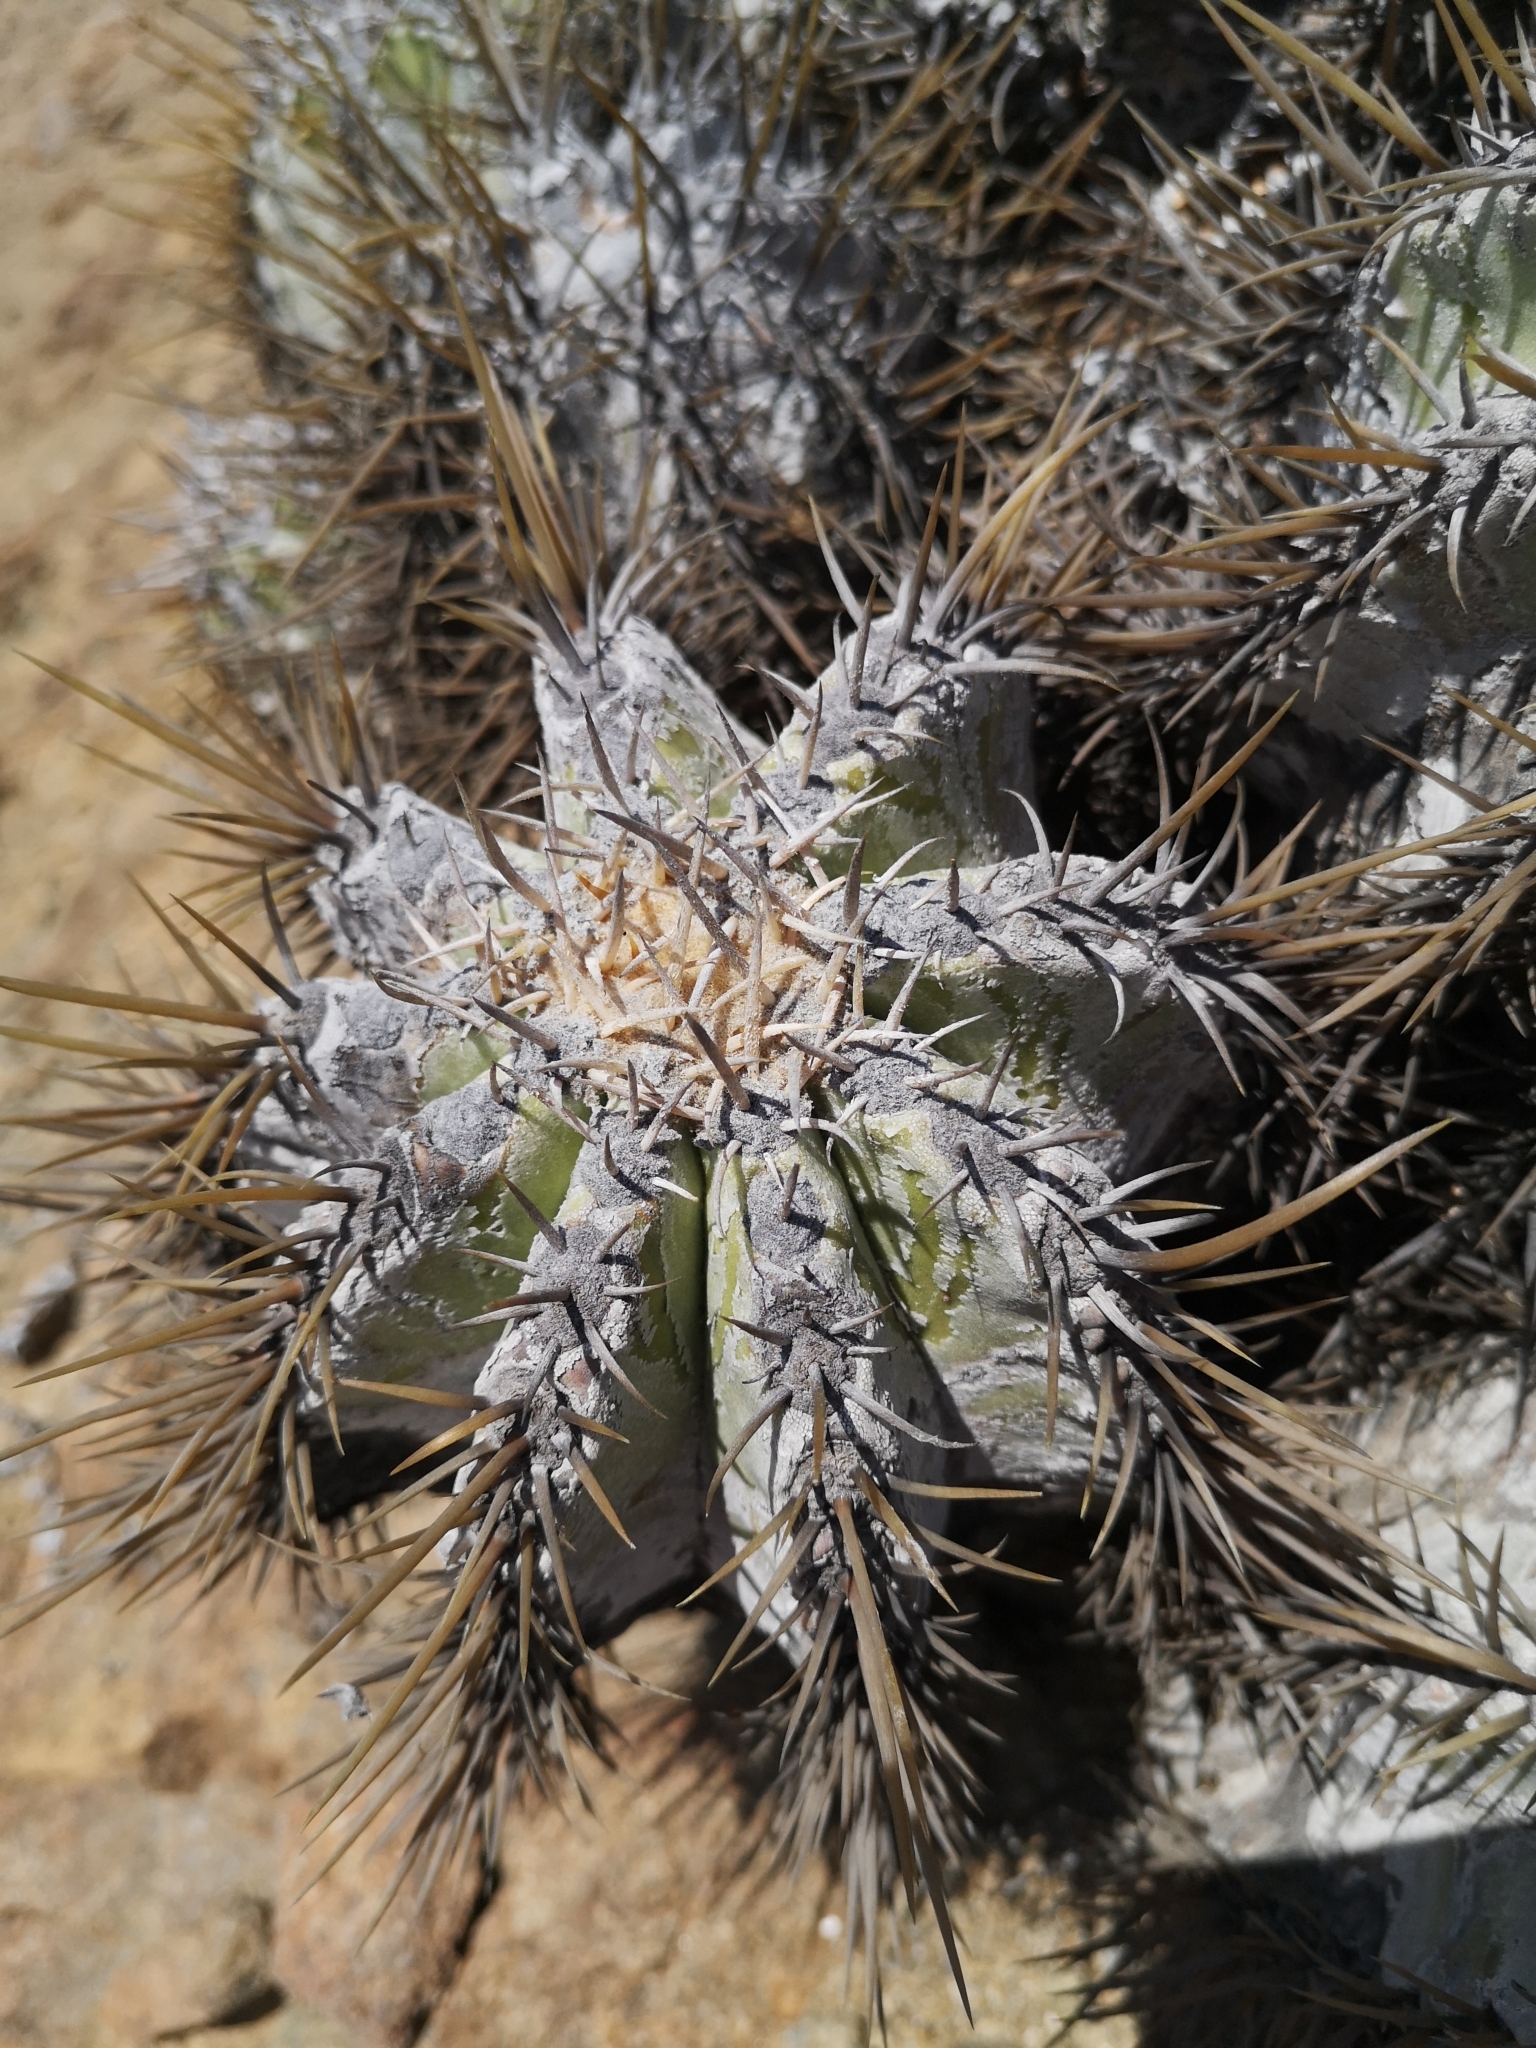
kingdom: Plantae
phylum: Tracheophyta
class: Magnoliopsida
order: Caryophyllales
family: Cactaceae
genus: Copiapoa
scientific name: Copiapoa solaris
